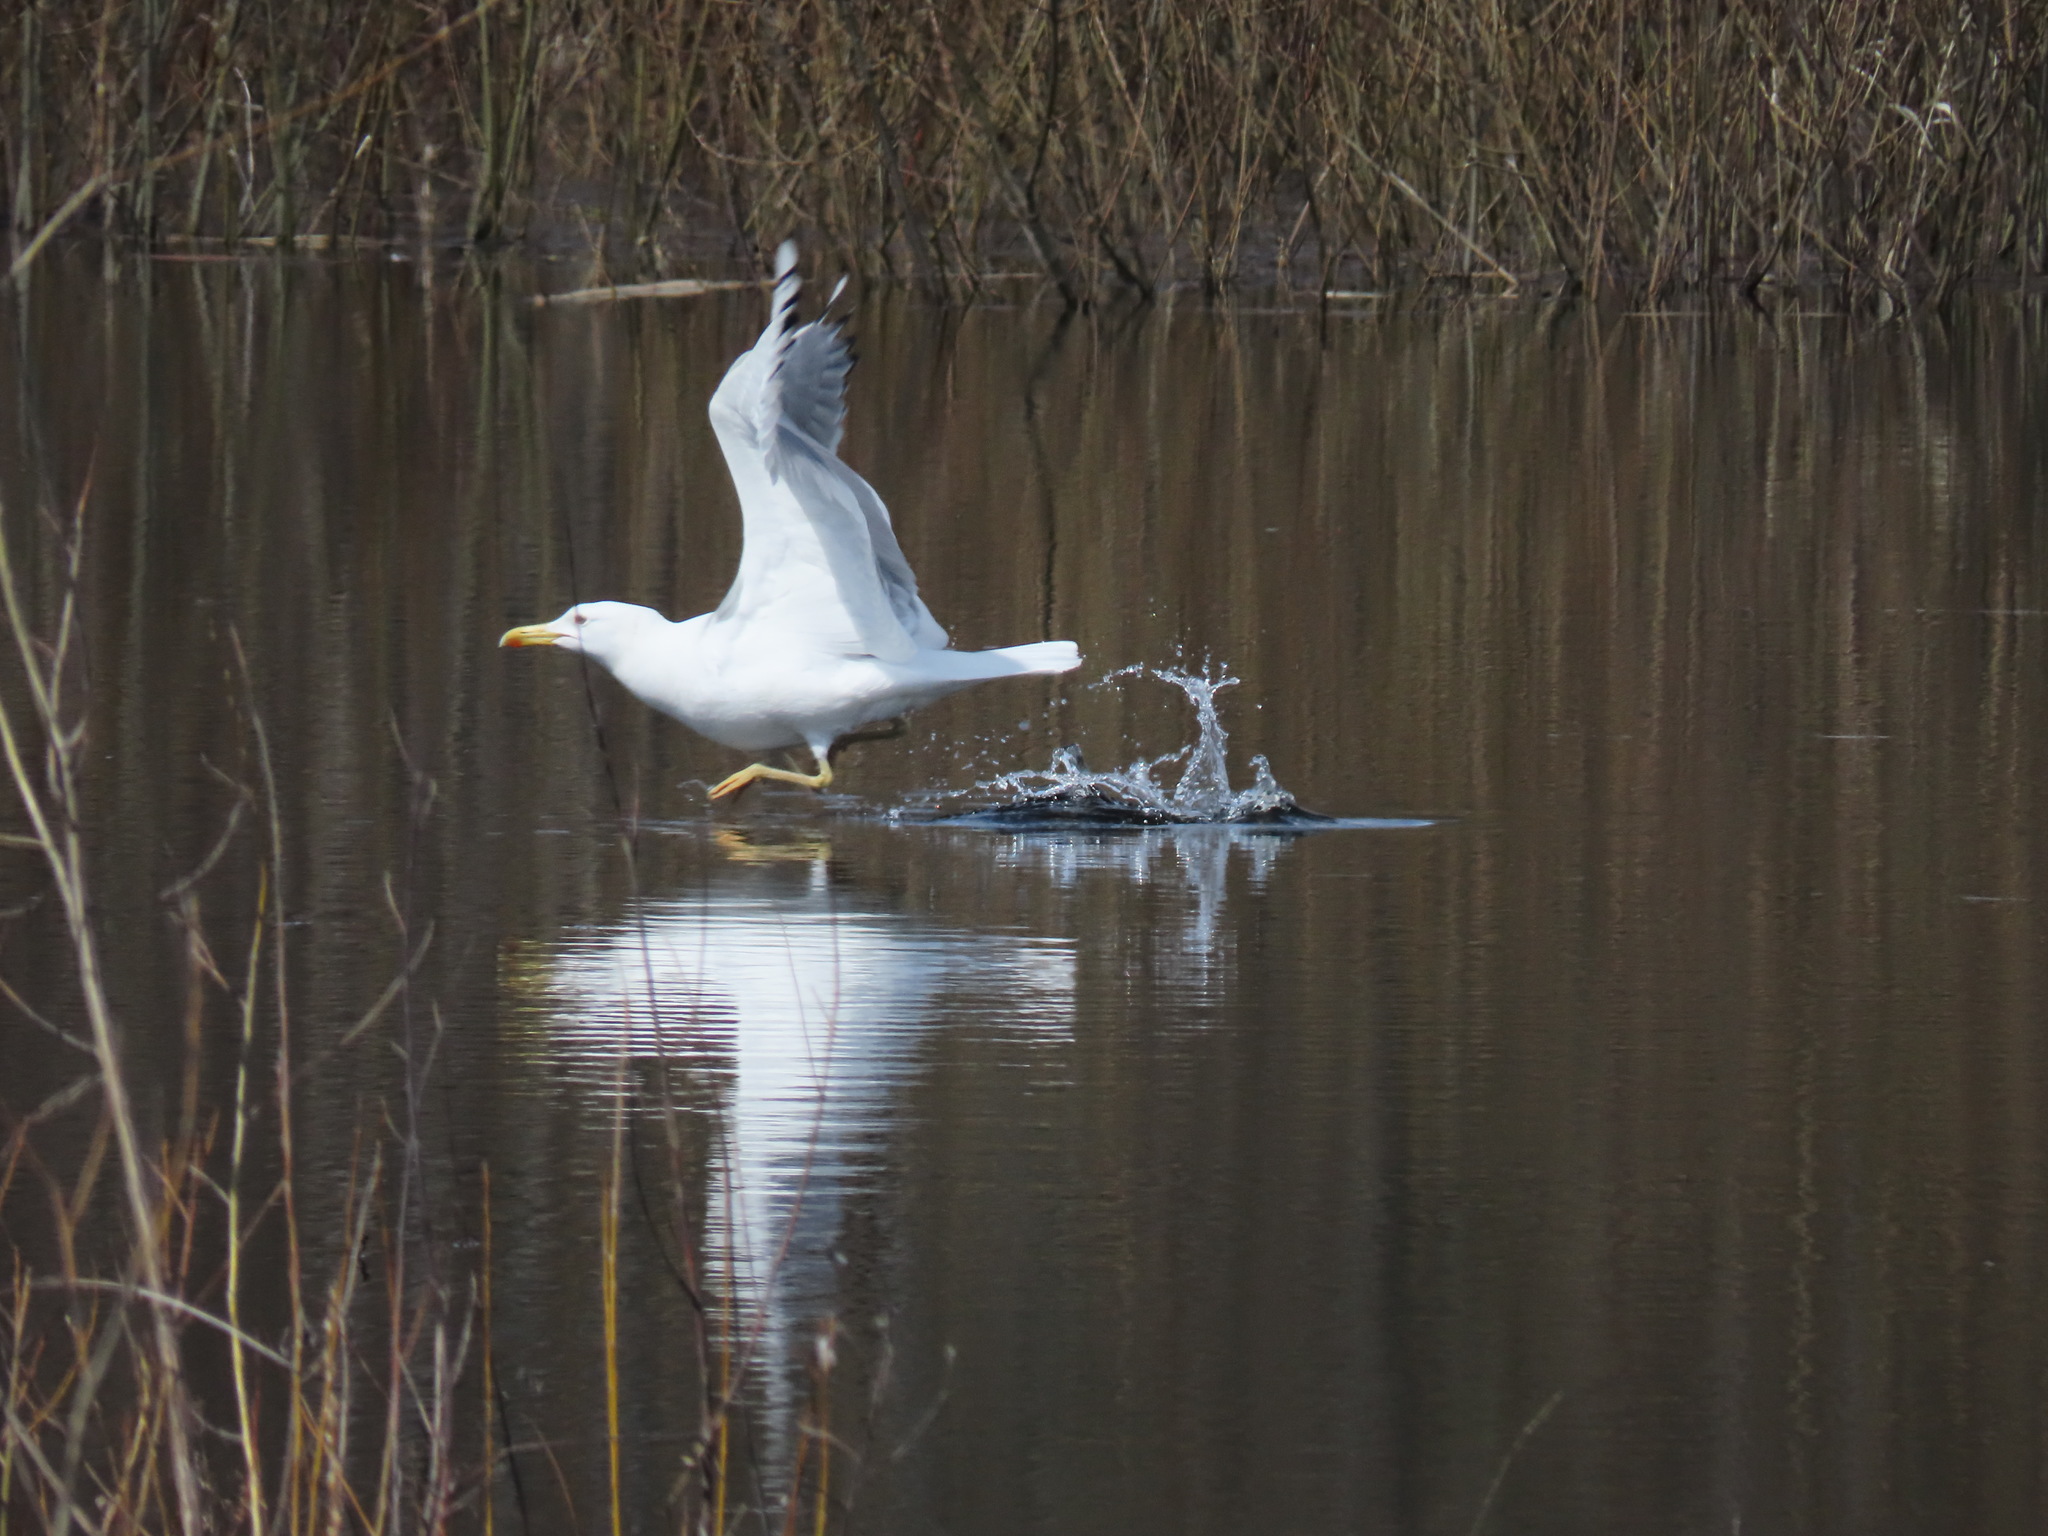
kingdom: Animalia
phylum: Chordata
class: Aves
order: Charadriiformes
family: Laridae
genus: Larus
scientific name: Larus cachinnans
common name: Caspian gull
